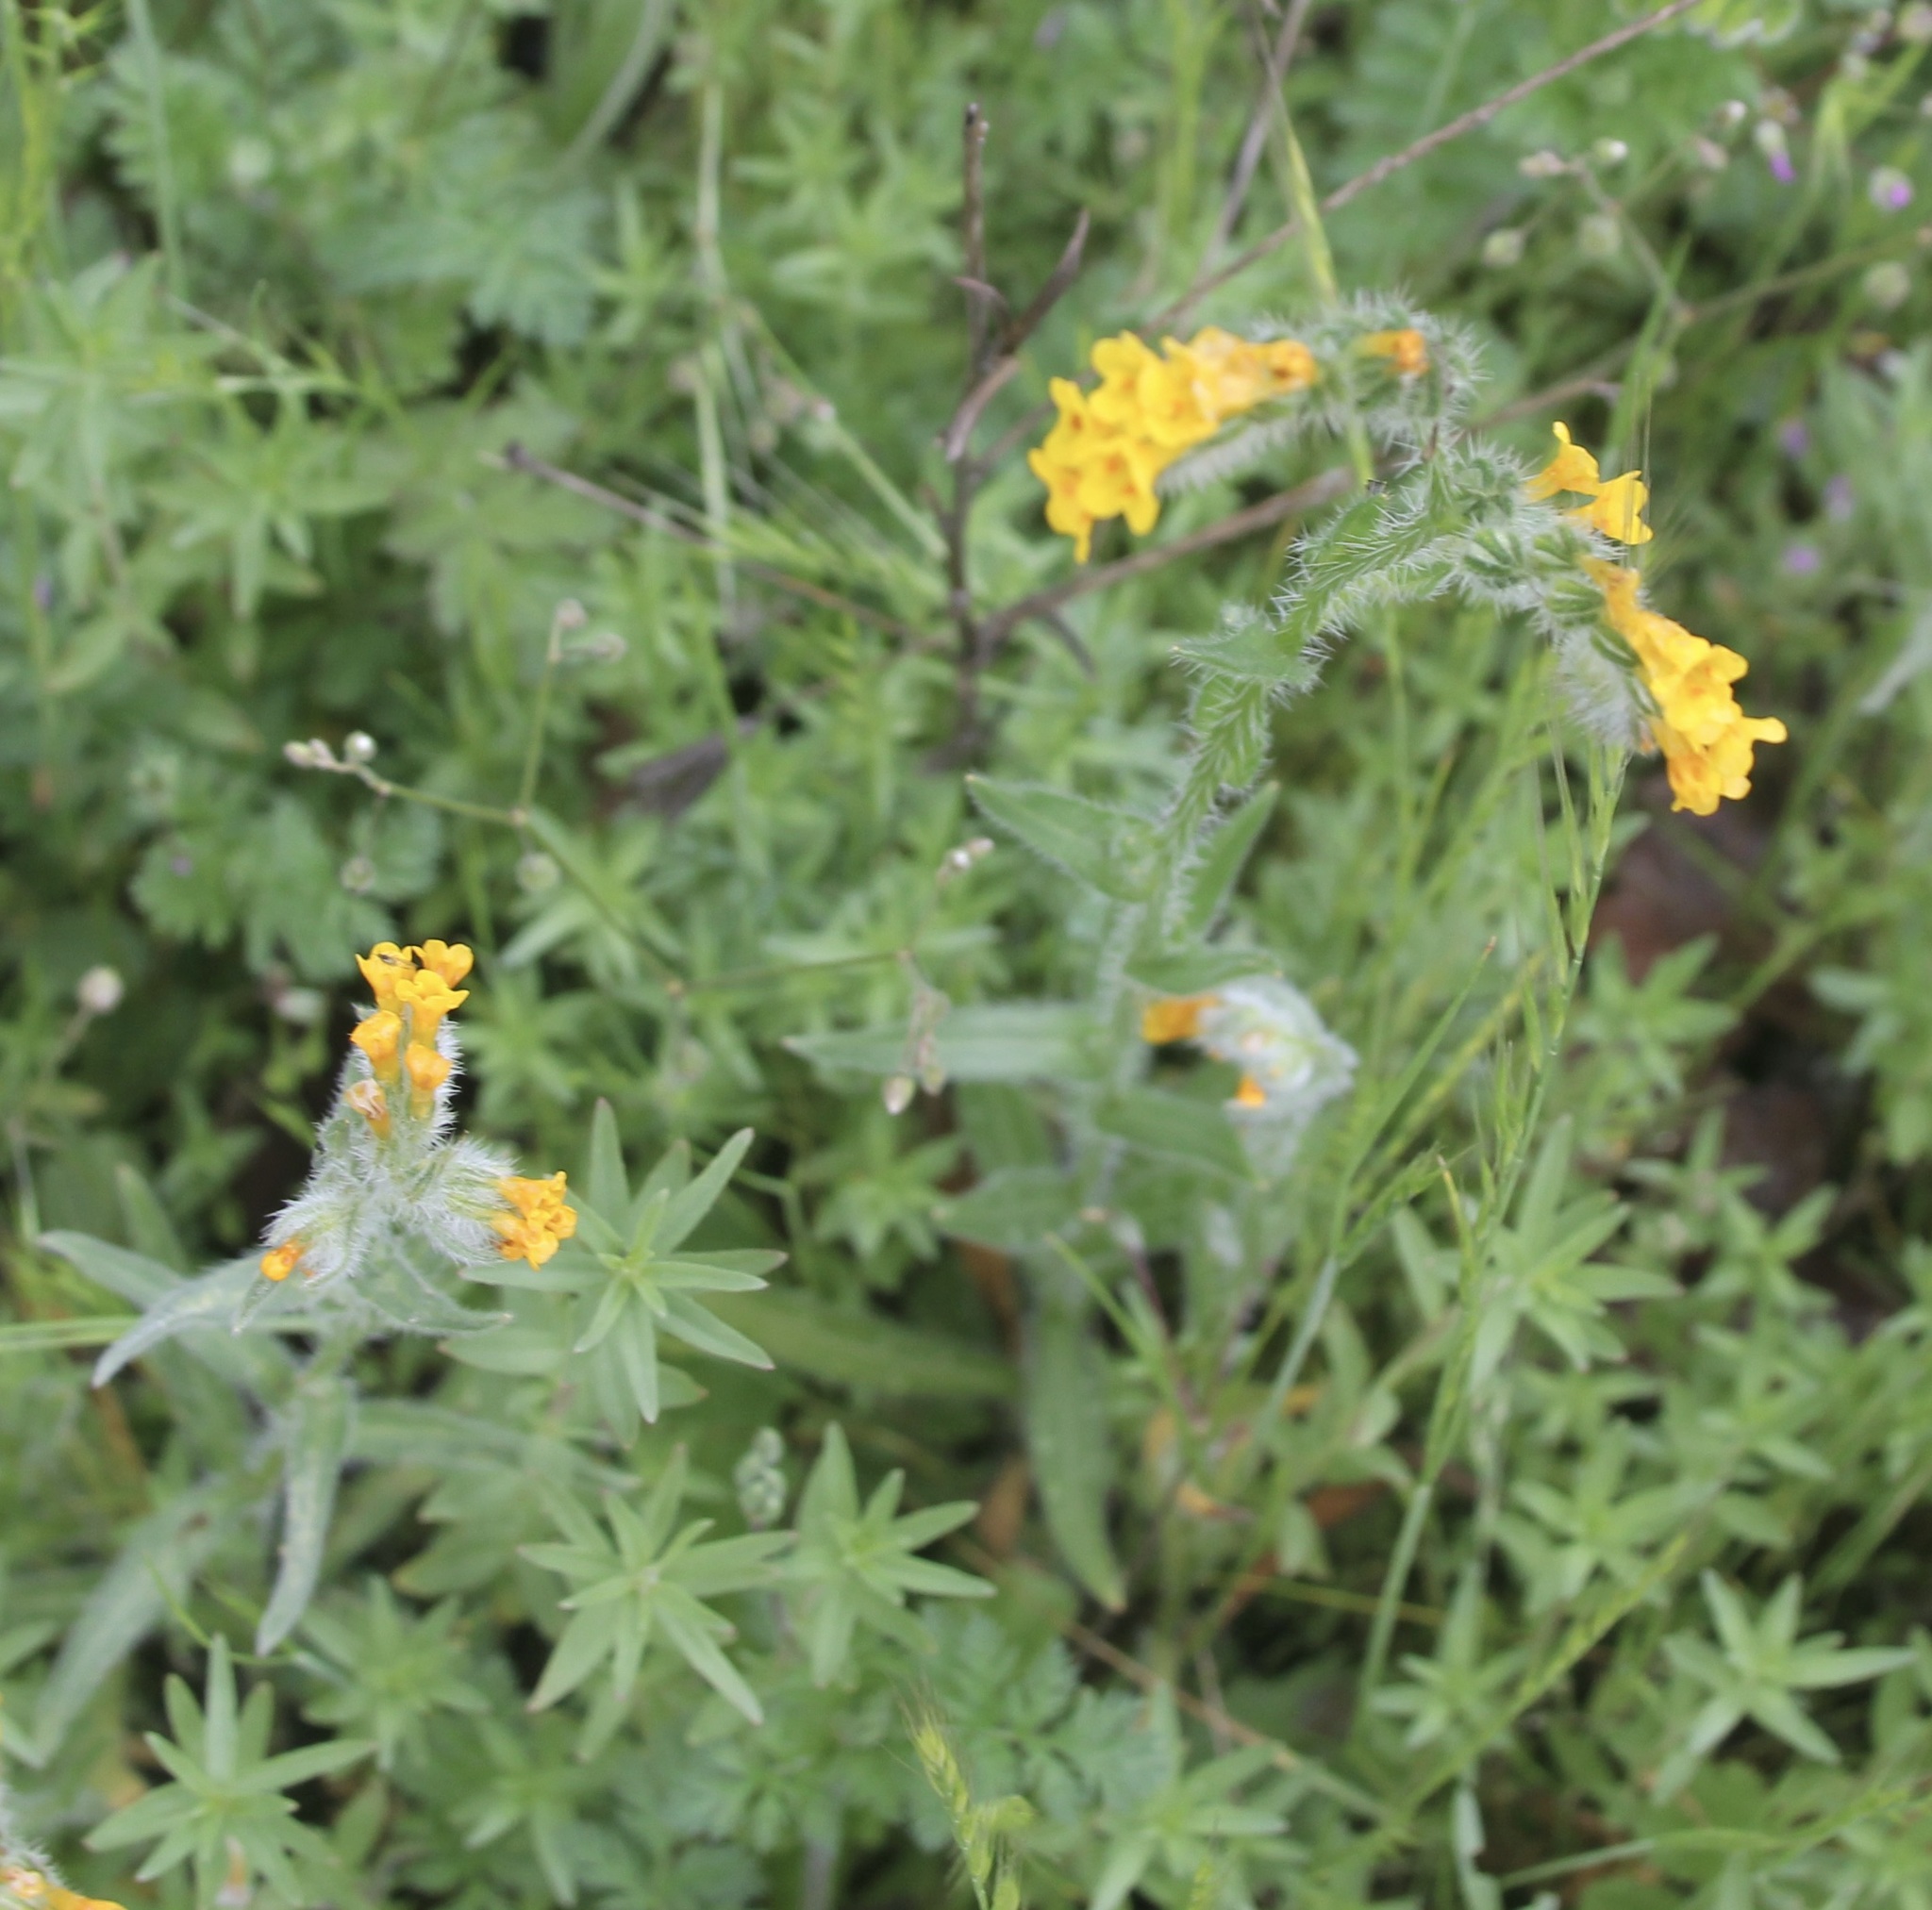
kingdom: Plantae
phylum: Tracheophyta
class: Magnoliopsida
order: Boraginales
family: Boraginaceae
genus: Amsinckia
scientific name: Amsinckia menziesii
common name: Menzies' fiddleneck
